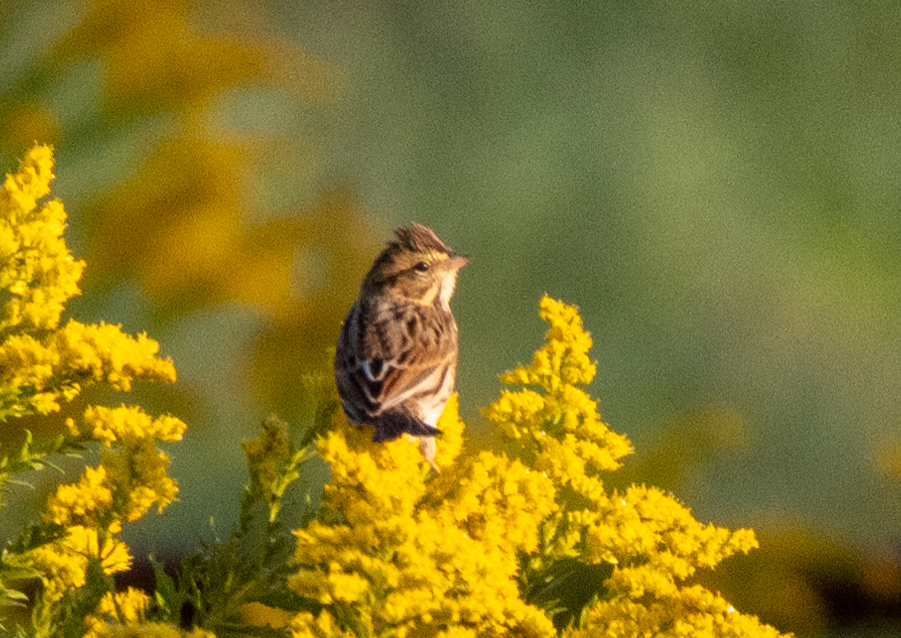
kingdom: Animalia
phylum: Chordata
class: Aves
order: Passeriformes
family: Passerellidae
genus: Passerculus
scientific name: Passerculus sandwichensis
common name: Savannah sparrow
